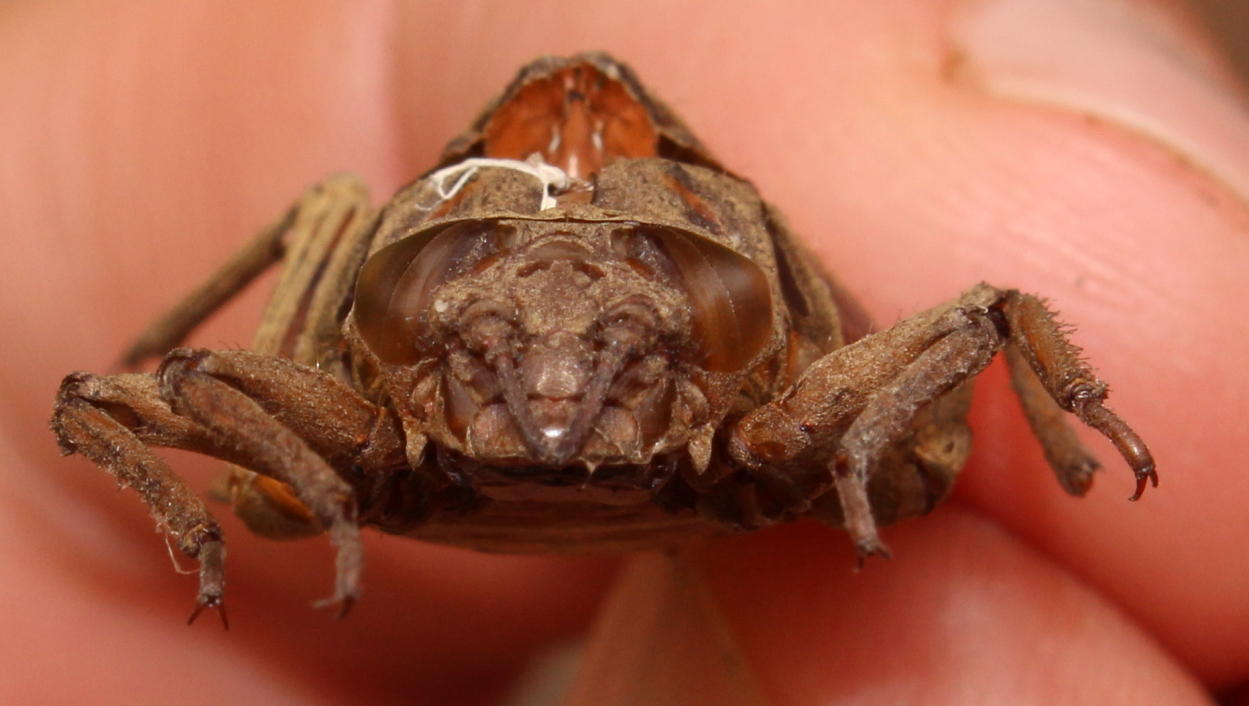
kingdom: Animalia
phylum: Arthropoda
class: Insecta
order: Odonata
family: Gomphidae
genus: Ictinogomphus
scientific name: Ictinogomphus ferox
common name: Common tiger
